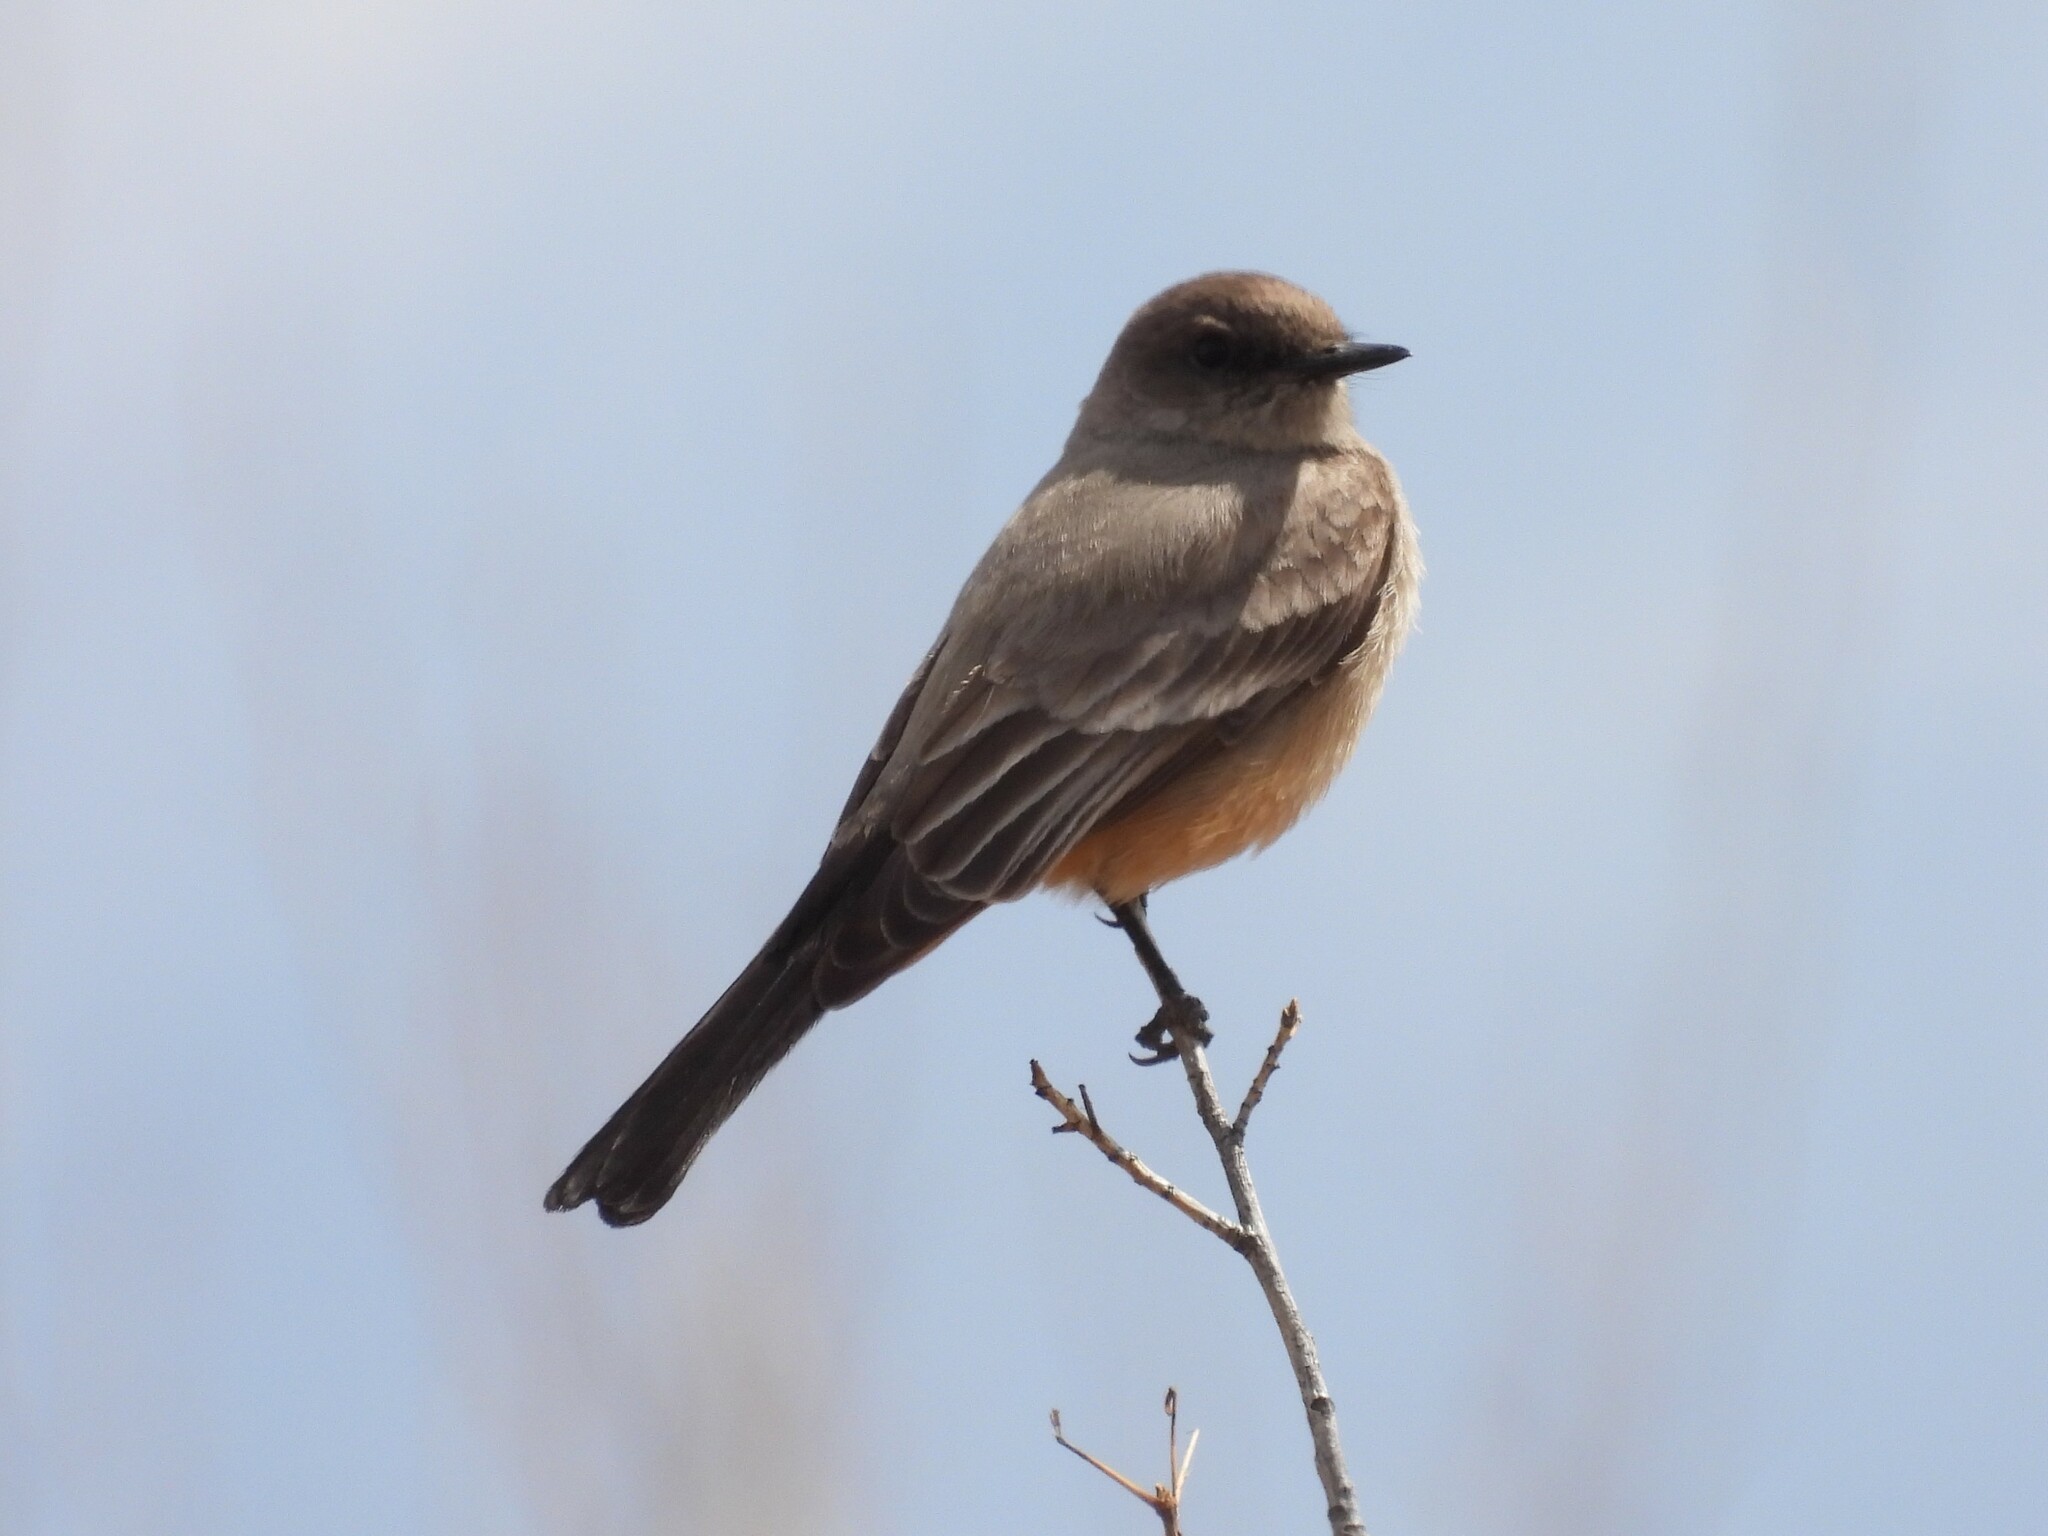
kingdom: Animalia
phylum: Chordata
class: Aves
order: Passeriformes
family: Tyrannidae
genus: Sayornis
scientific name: Sayornis saya
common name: Say's phoebe
